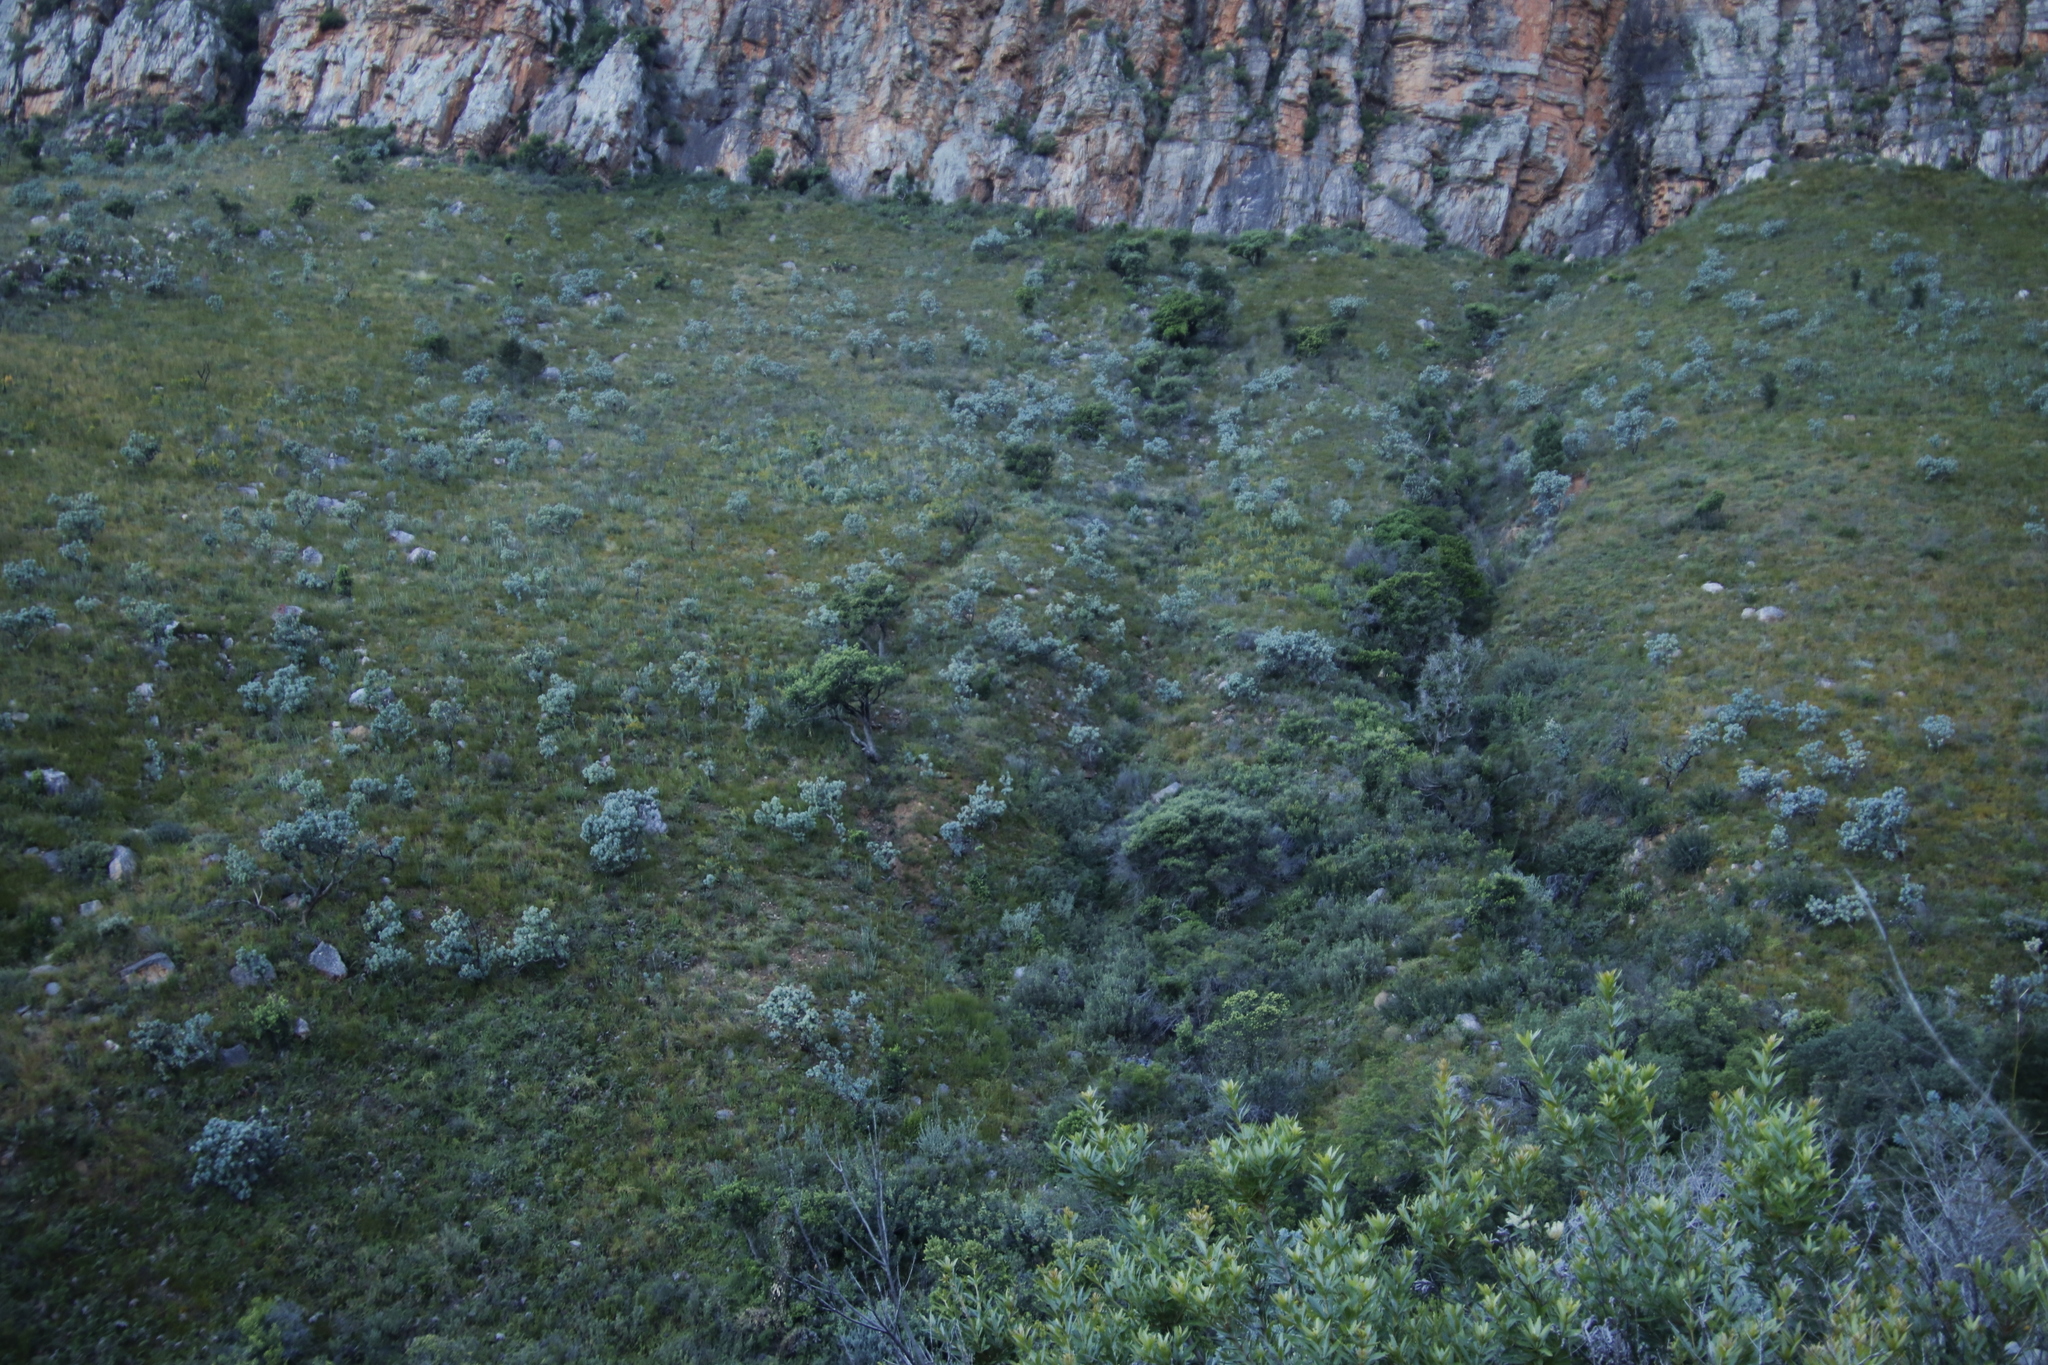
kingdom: Plantae
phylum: Tracheophyta
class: Magnoliopsida
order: Proteales
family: Proteaceae
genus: Protea
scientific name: Protea nitida
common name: Tree protea
